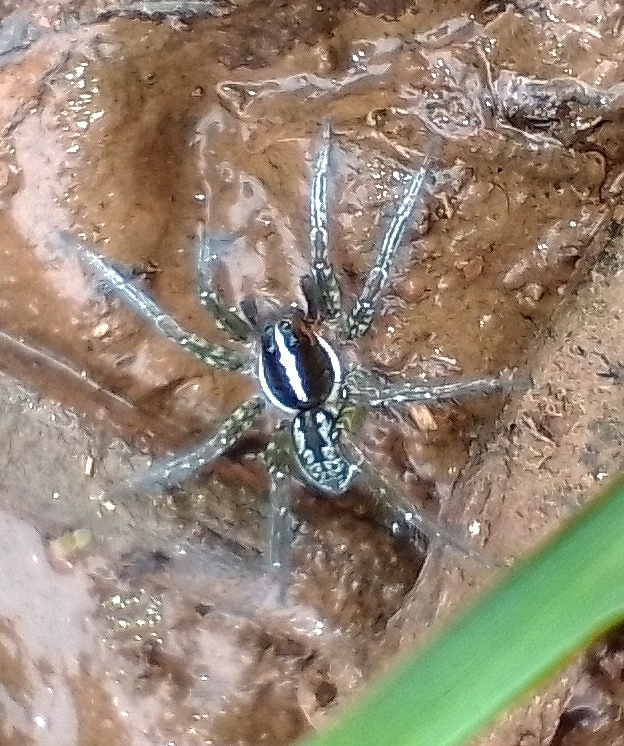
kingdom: Animalia
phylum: Arthropoda
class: Arachnida
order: Araneae
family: Lycosidae
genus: Allocosa
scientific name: Allocosa paraguayensis
